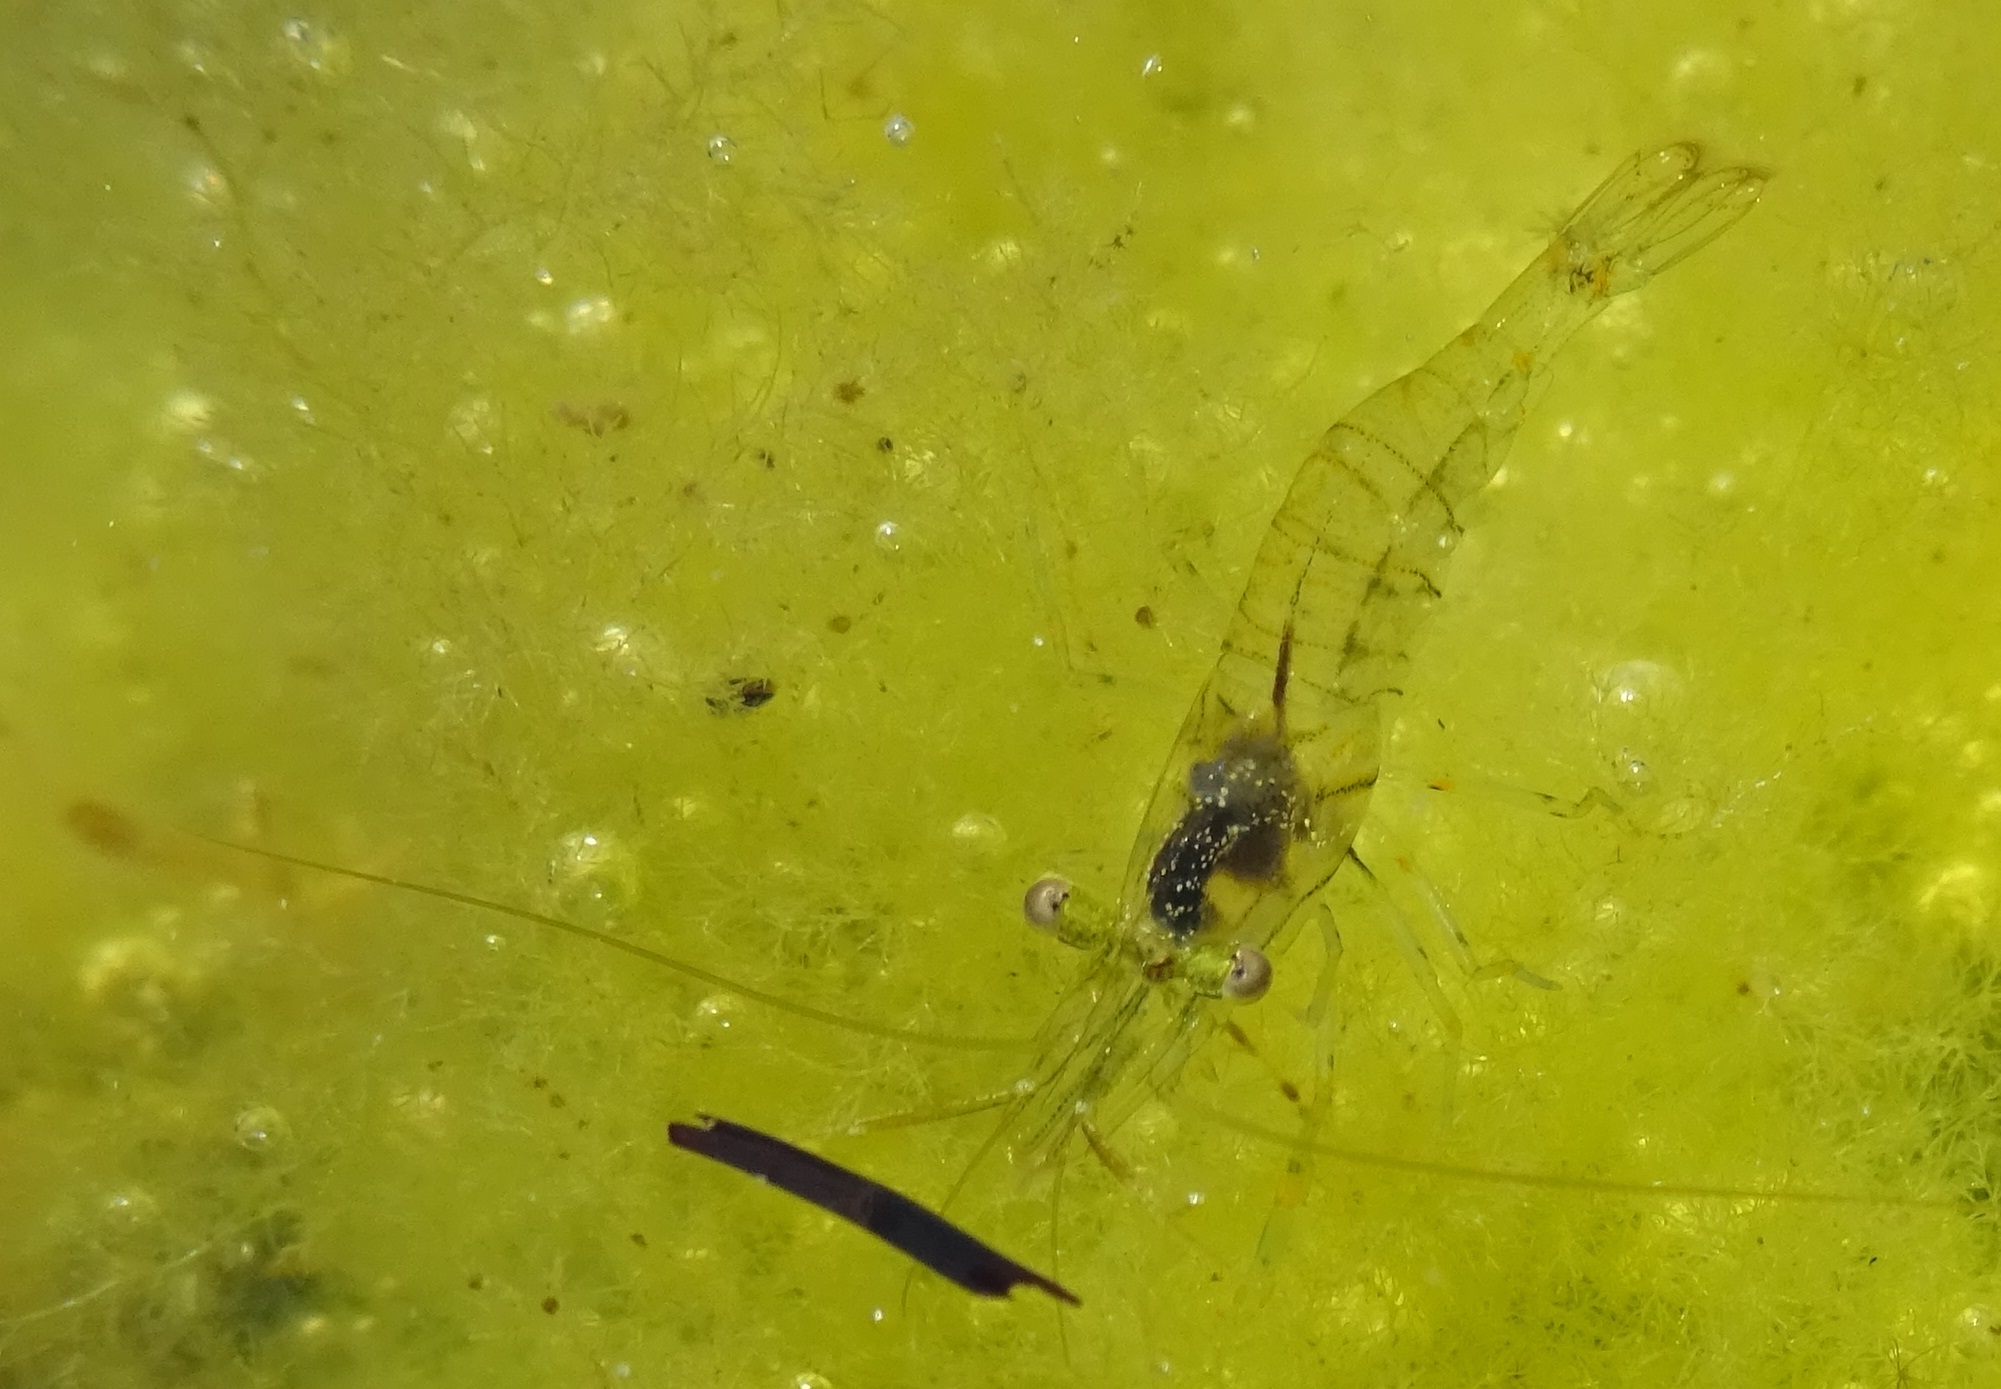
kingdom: Animalia
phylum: Arthropoda
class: Malacostraca
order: Decapoda
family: Palaemonidae
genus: Palaemon
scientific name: Palaemon elegans
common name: Grass prawm
